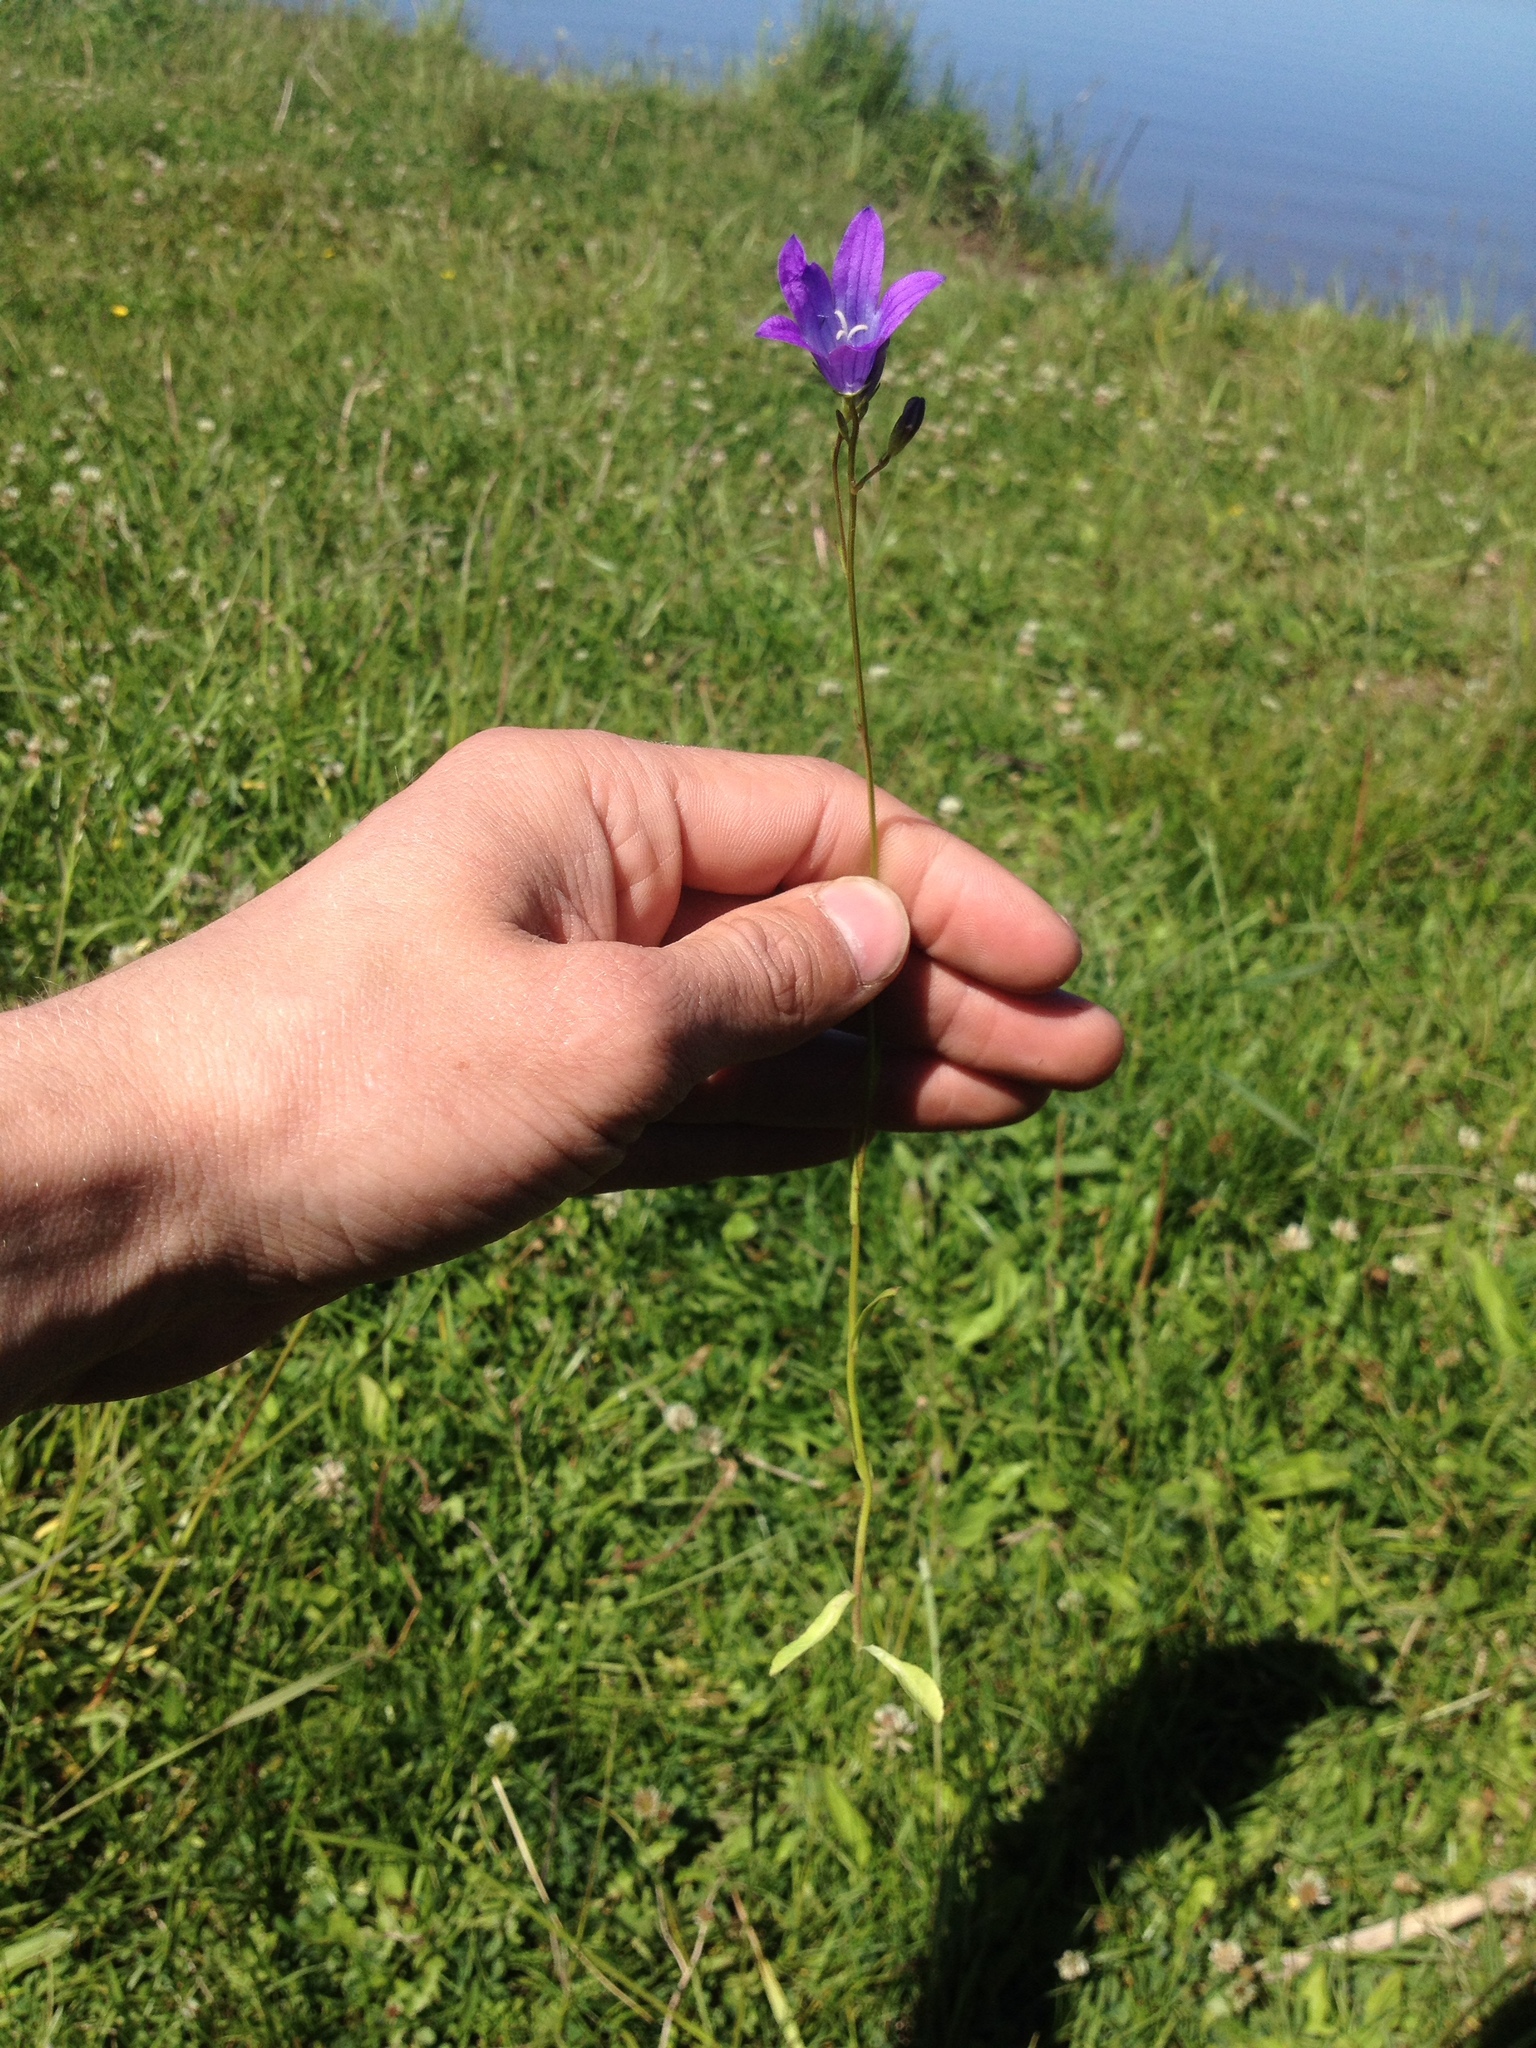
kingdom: Plantae
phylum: Tracheophyta
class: Magnoliopsida
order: Asterales
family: Campanulaceae
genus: Campanula
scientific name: Campanula patula
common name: Spreading bellflower
